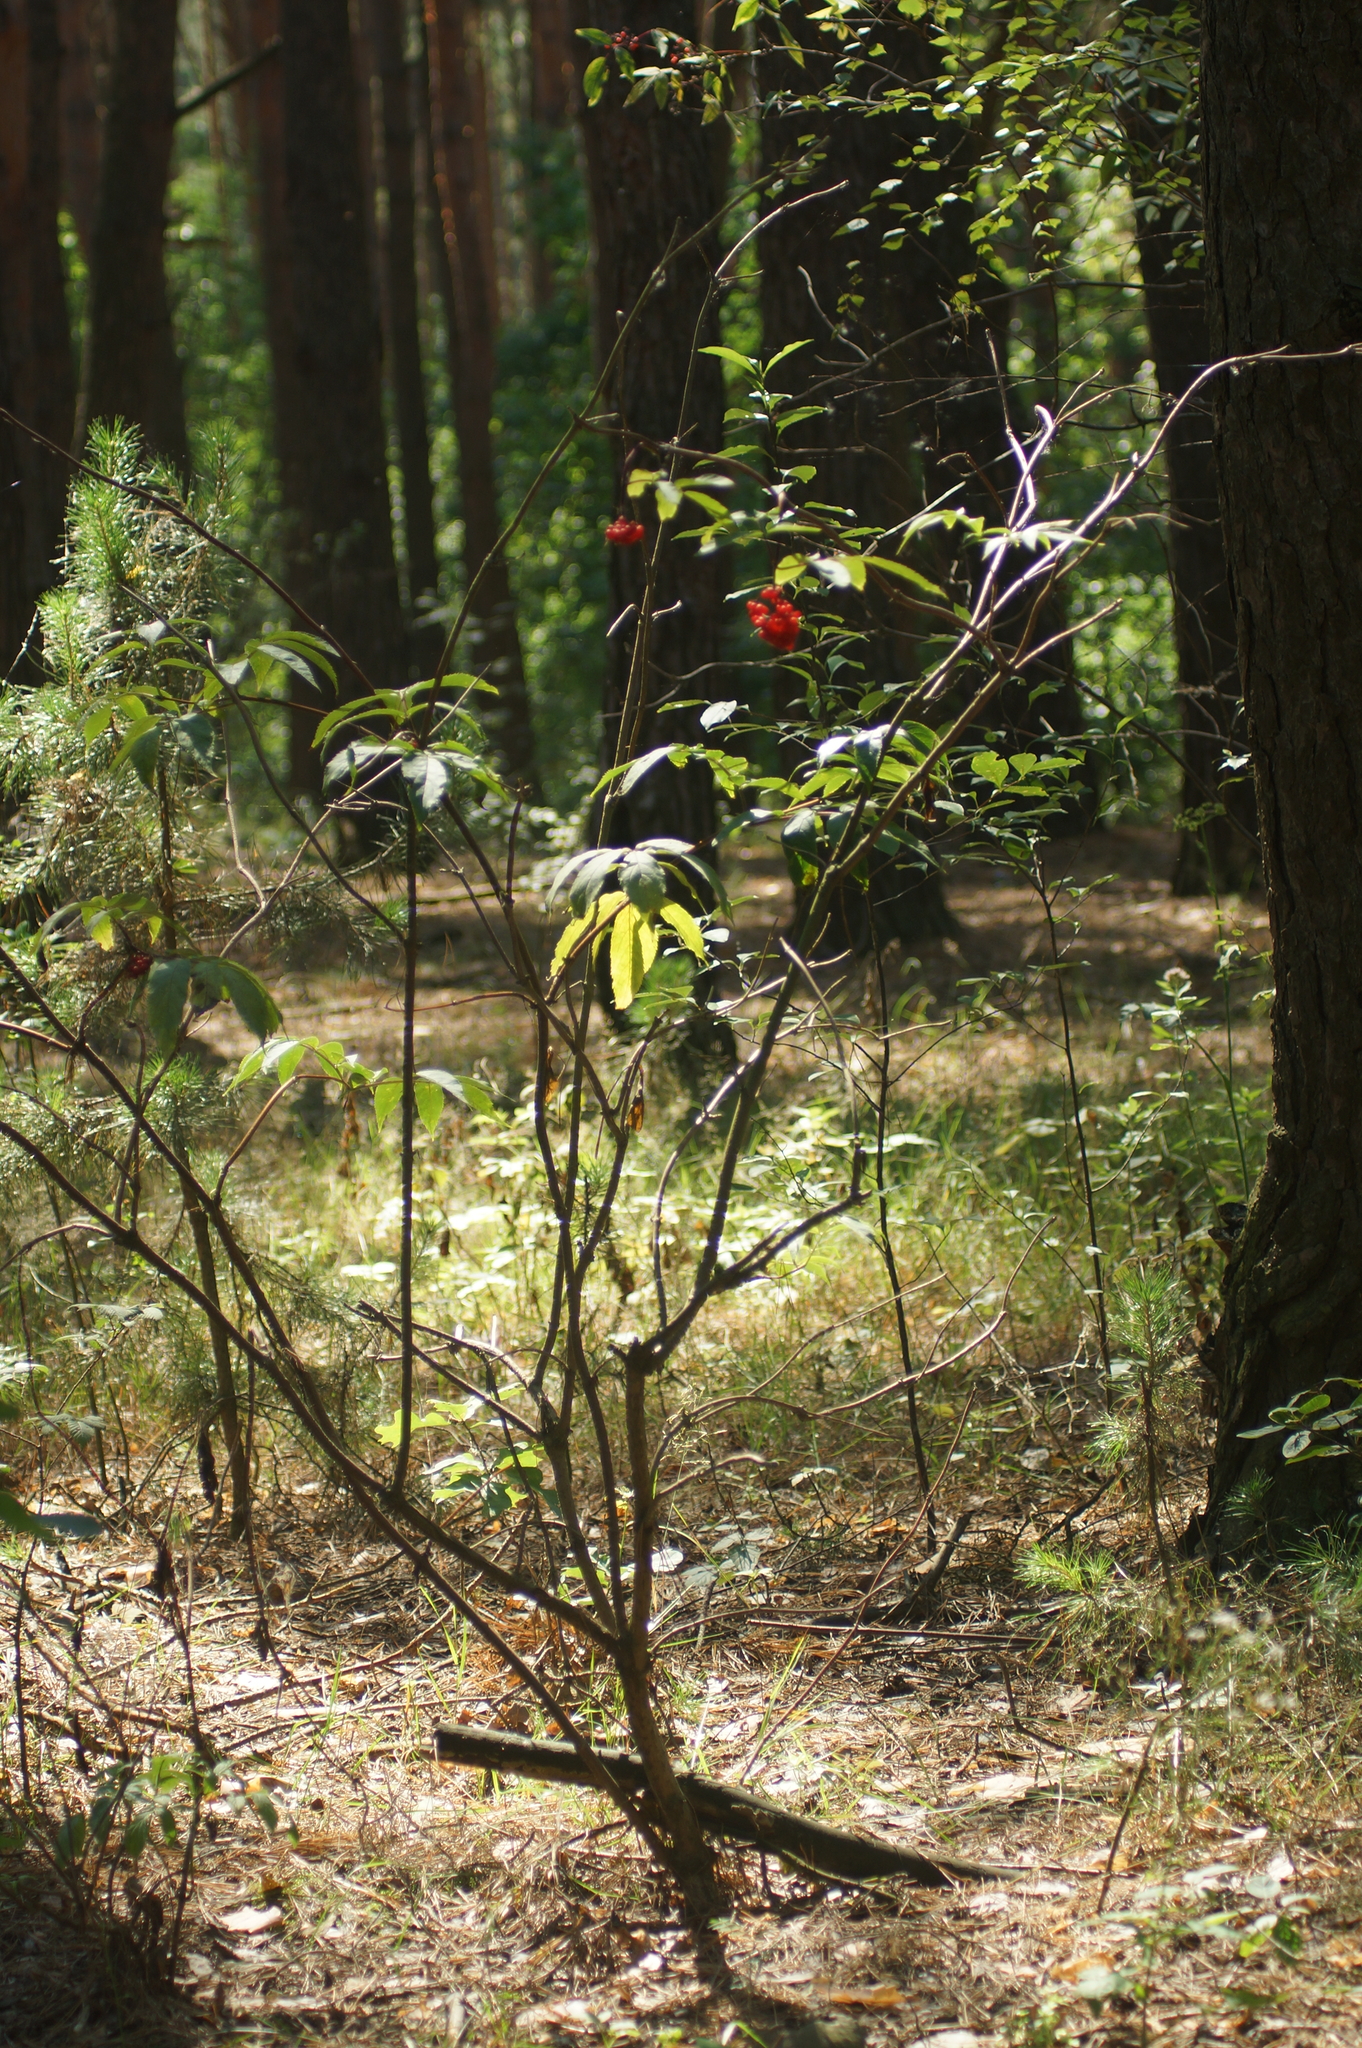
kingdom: Plantae
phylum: Tracheophyta
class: Magnoliopsida
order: Dipsacales
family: Viburnaceae
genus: Sambucus
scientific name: Sambucus racemosa
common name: Red-berried elder
